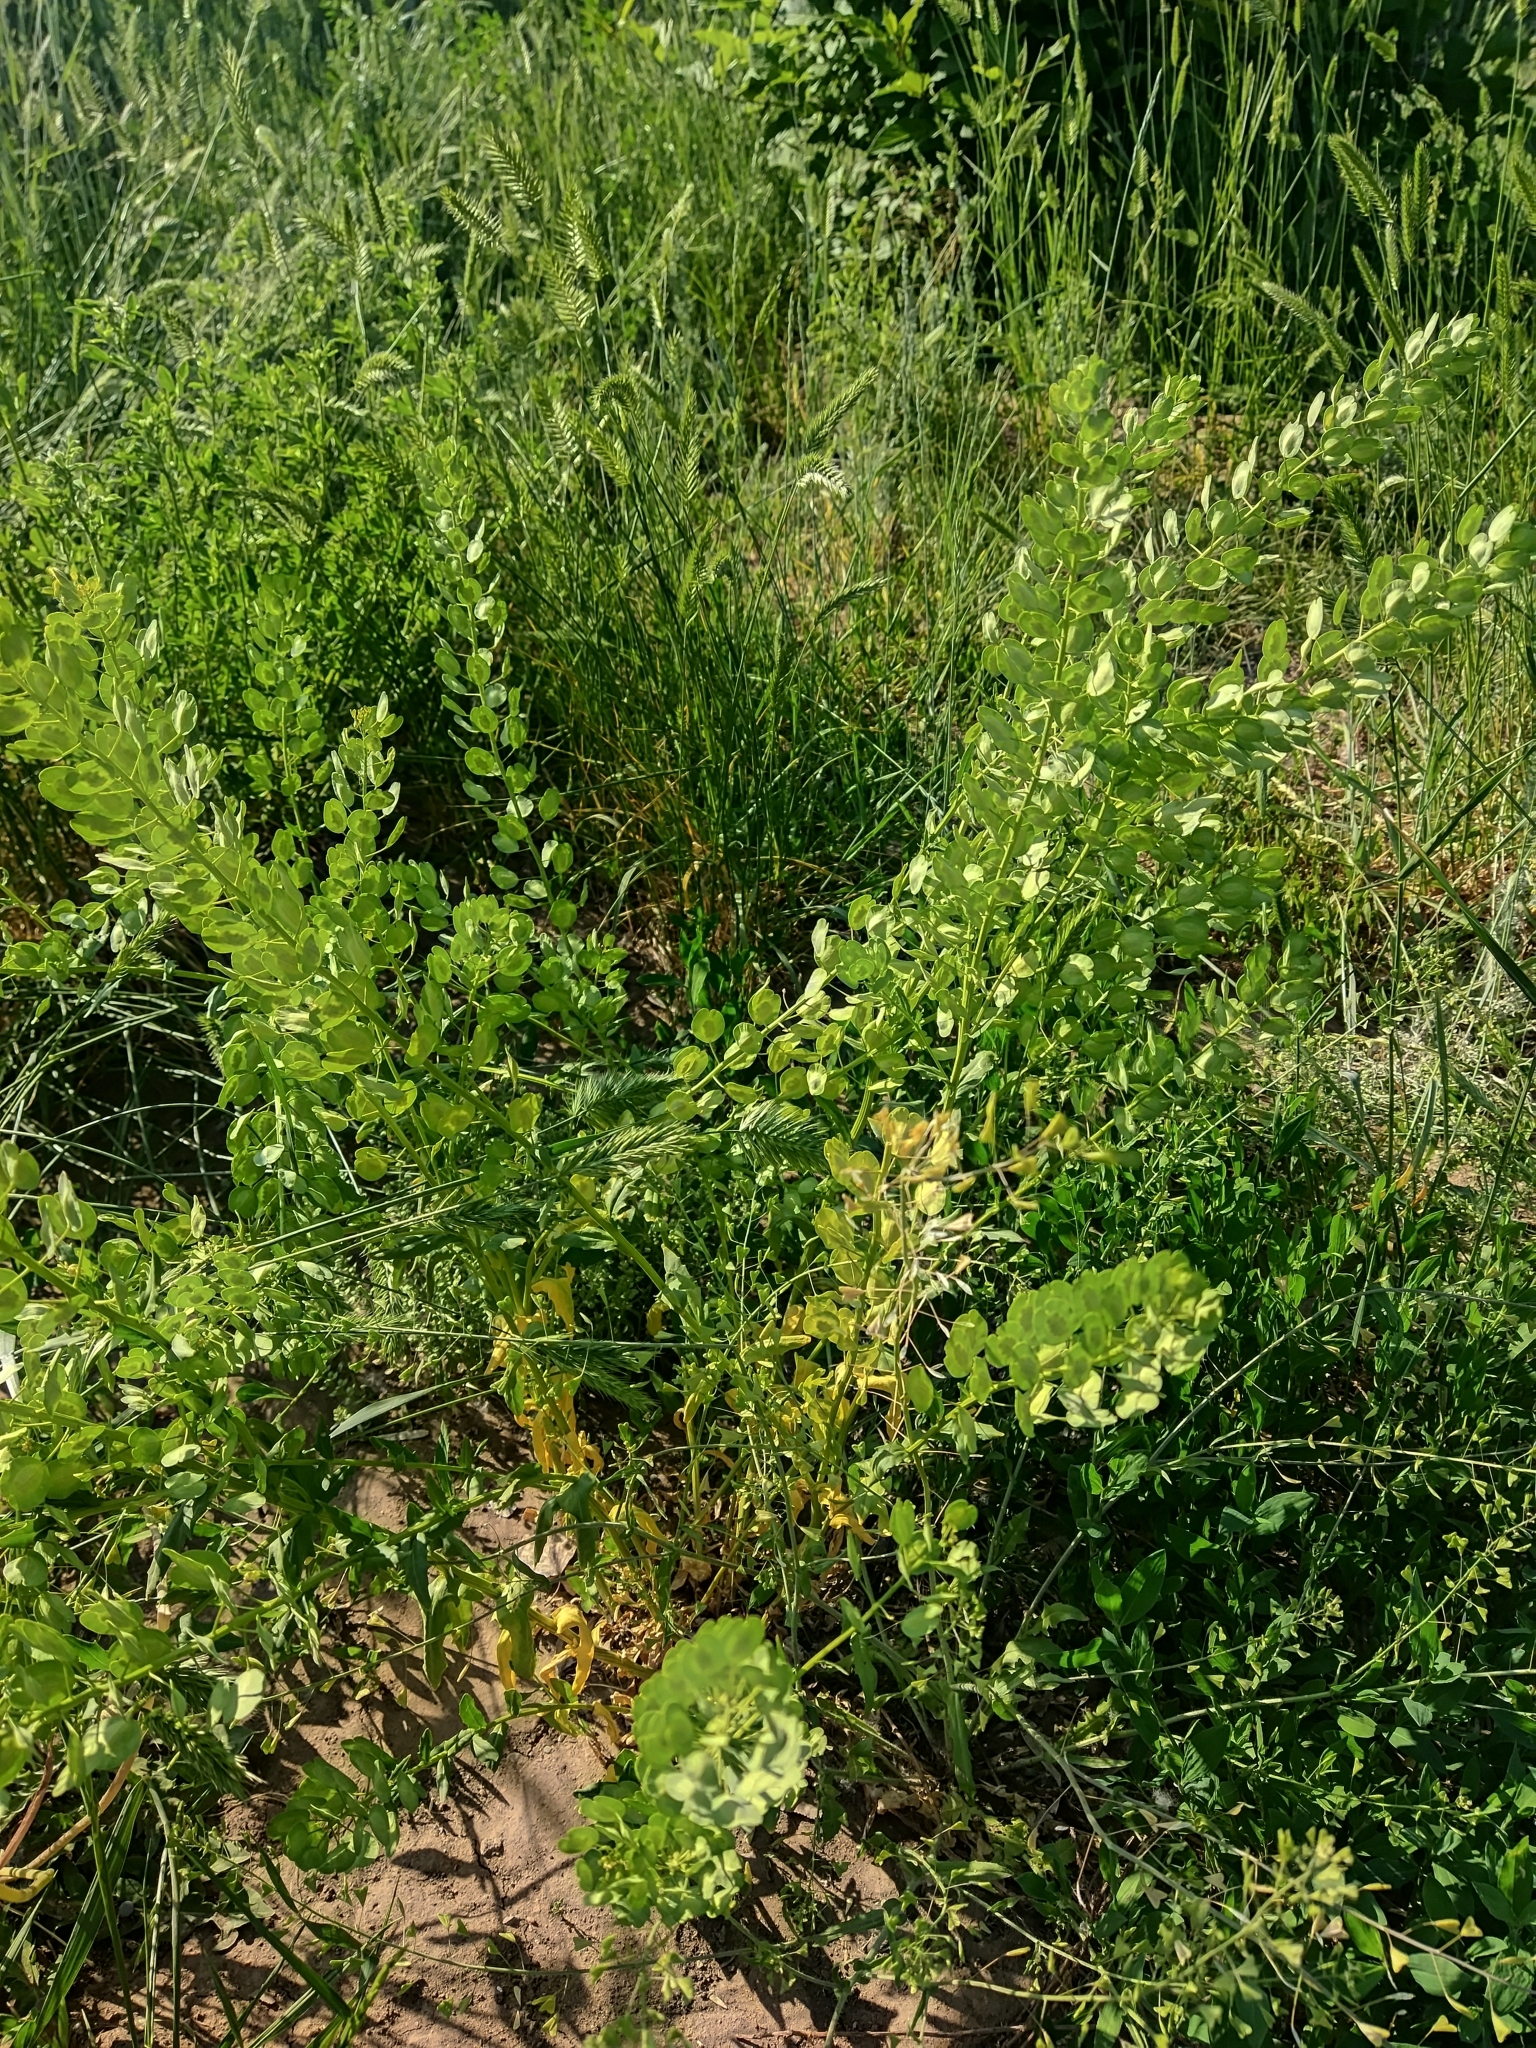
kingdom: Plantae
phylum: Tracheophyta
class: Magnoliopsida
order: Brassicales
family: Brassicaceae
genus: Thlaspi
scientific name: Thlaspi arvense
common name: Field pennycress
